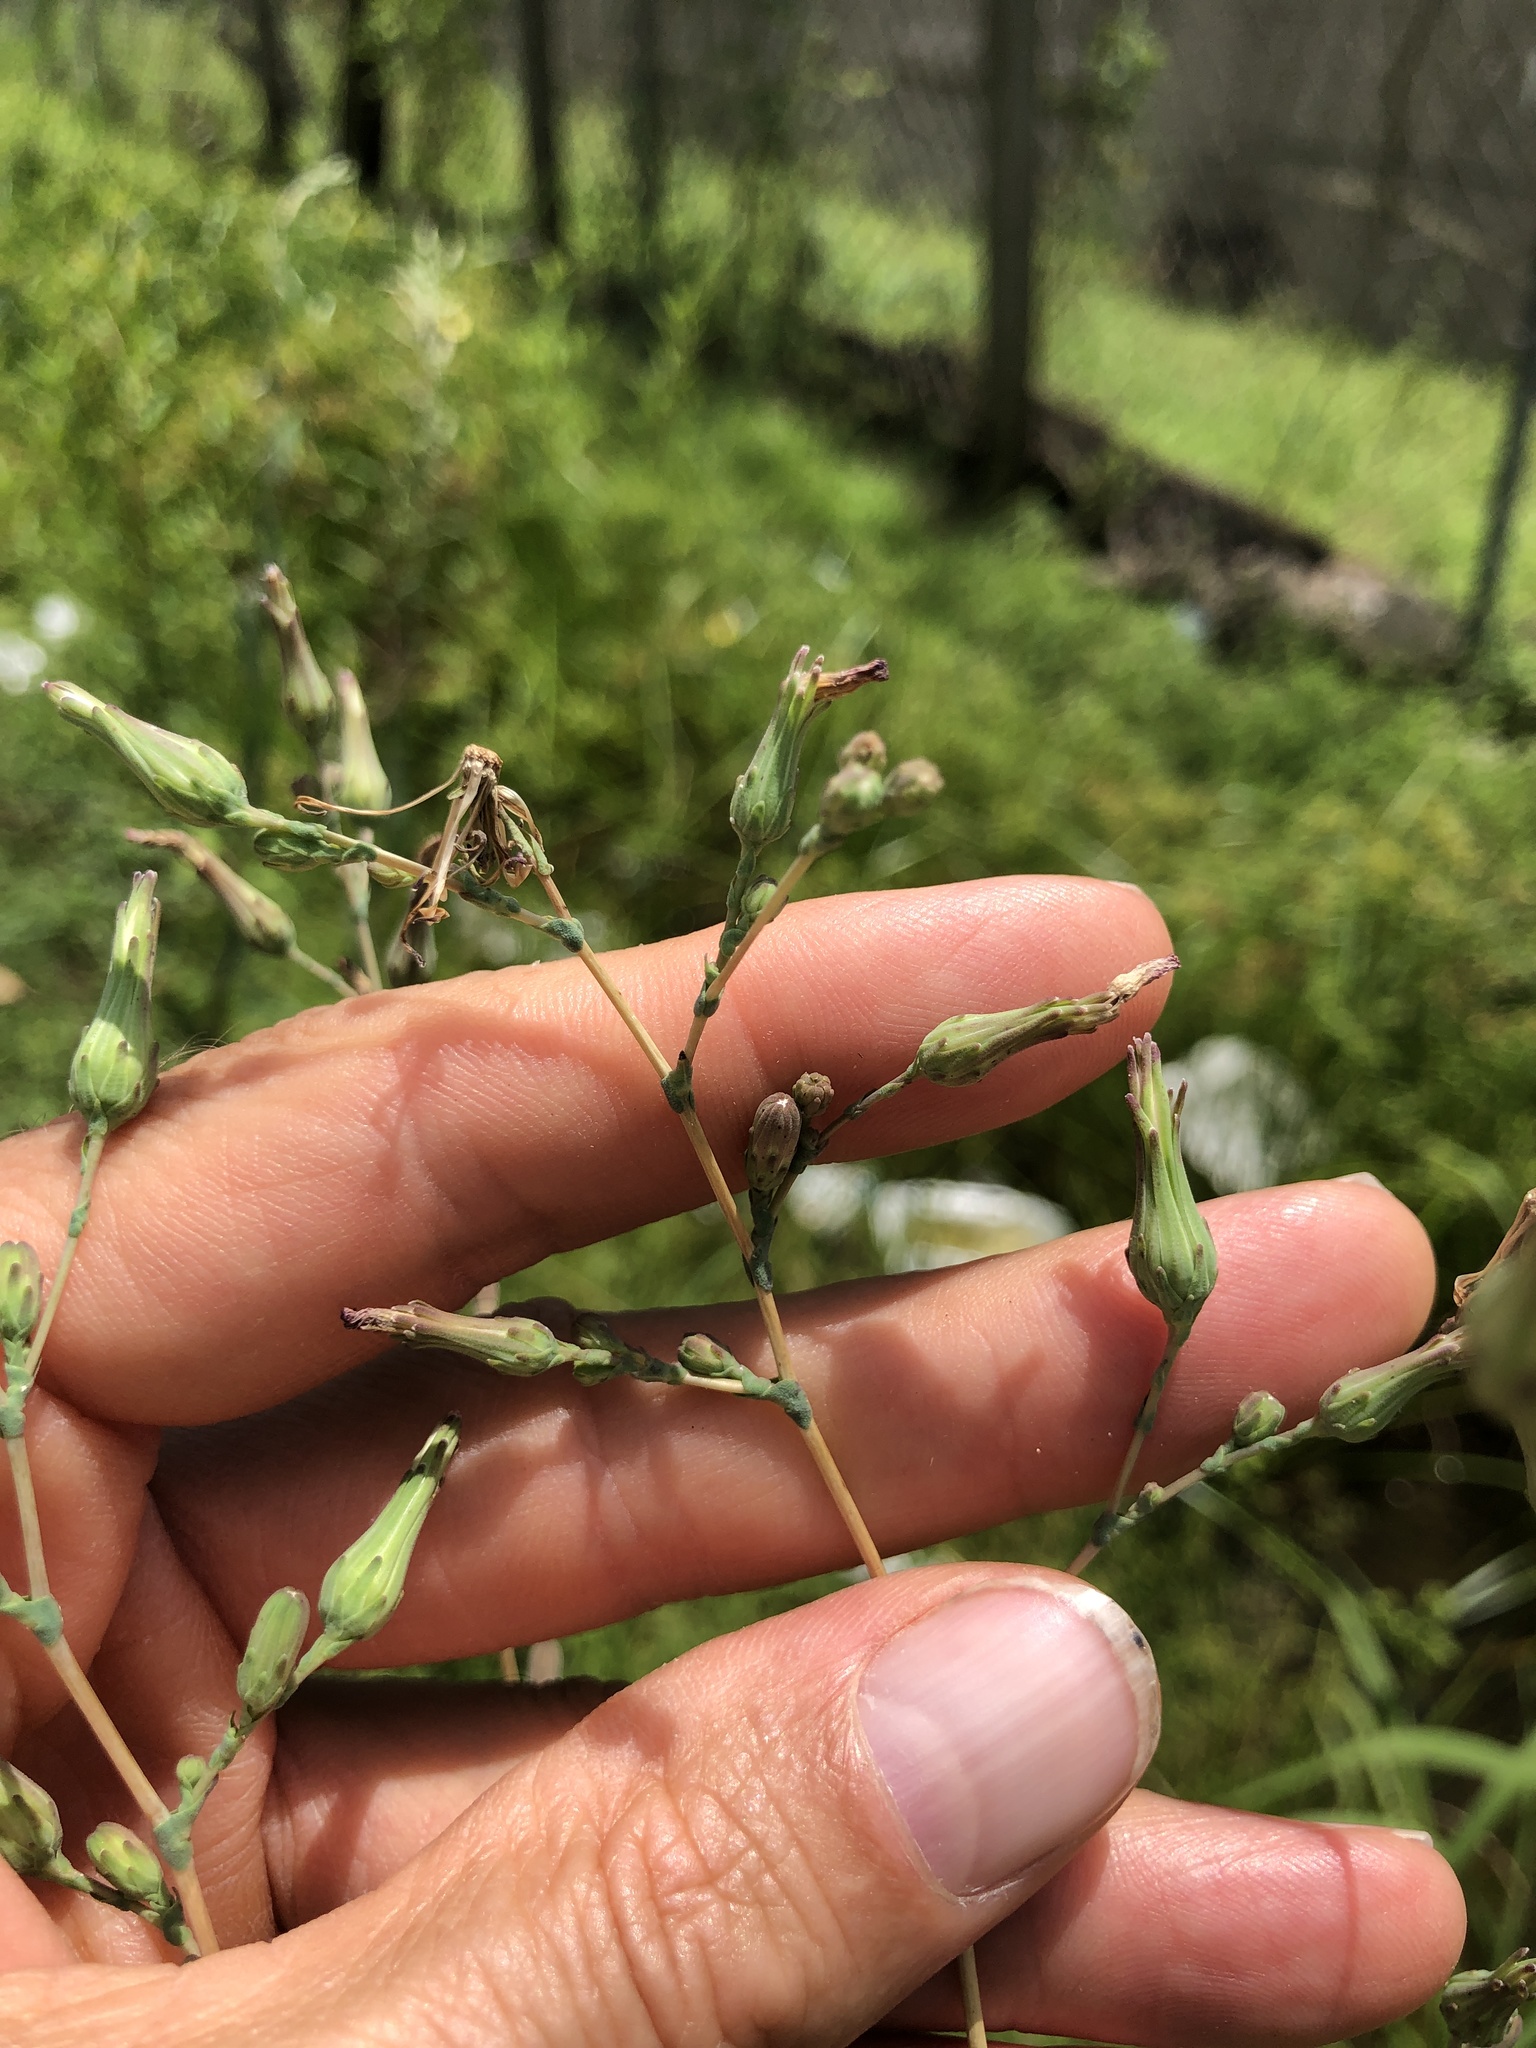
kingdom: Plantae
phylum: Tracheophyta
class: Magnoliopsida
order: Asterales
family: Asteraceae
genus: Lactuca
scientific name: Lactuca serriola
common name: Prickly lettuce
